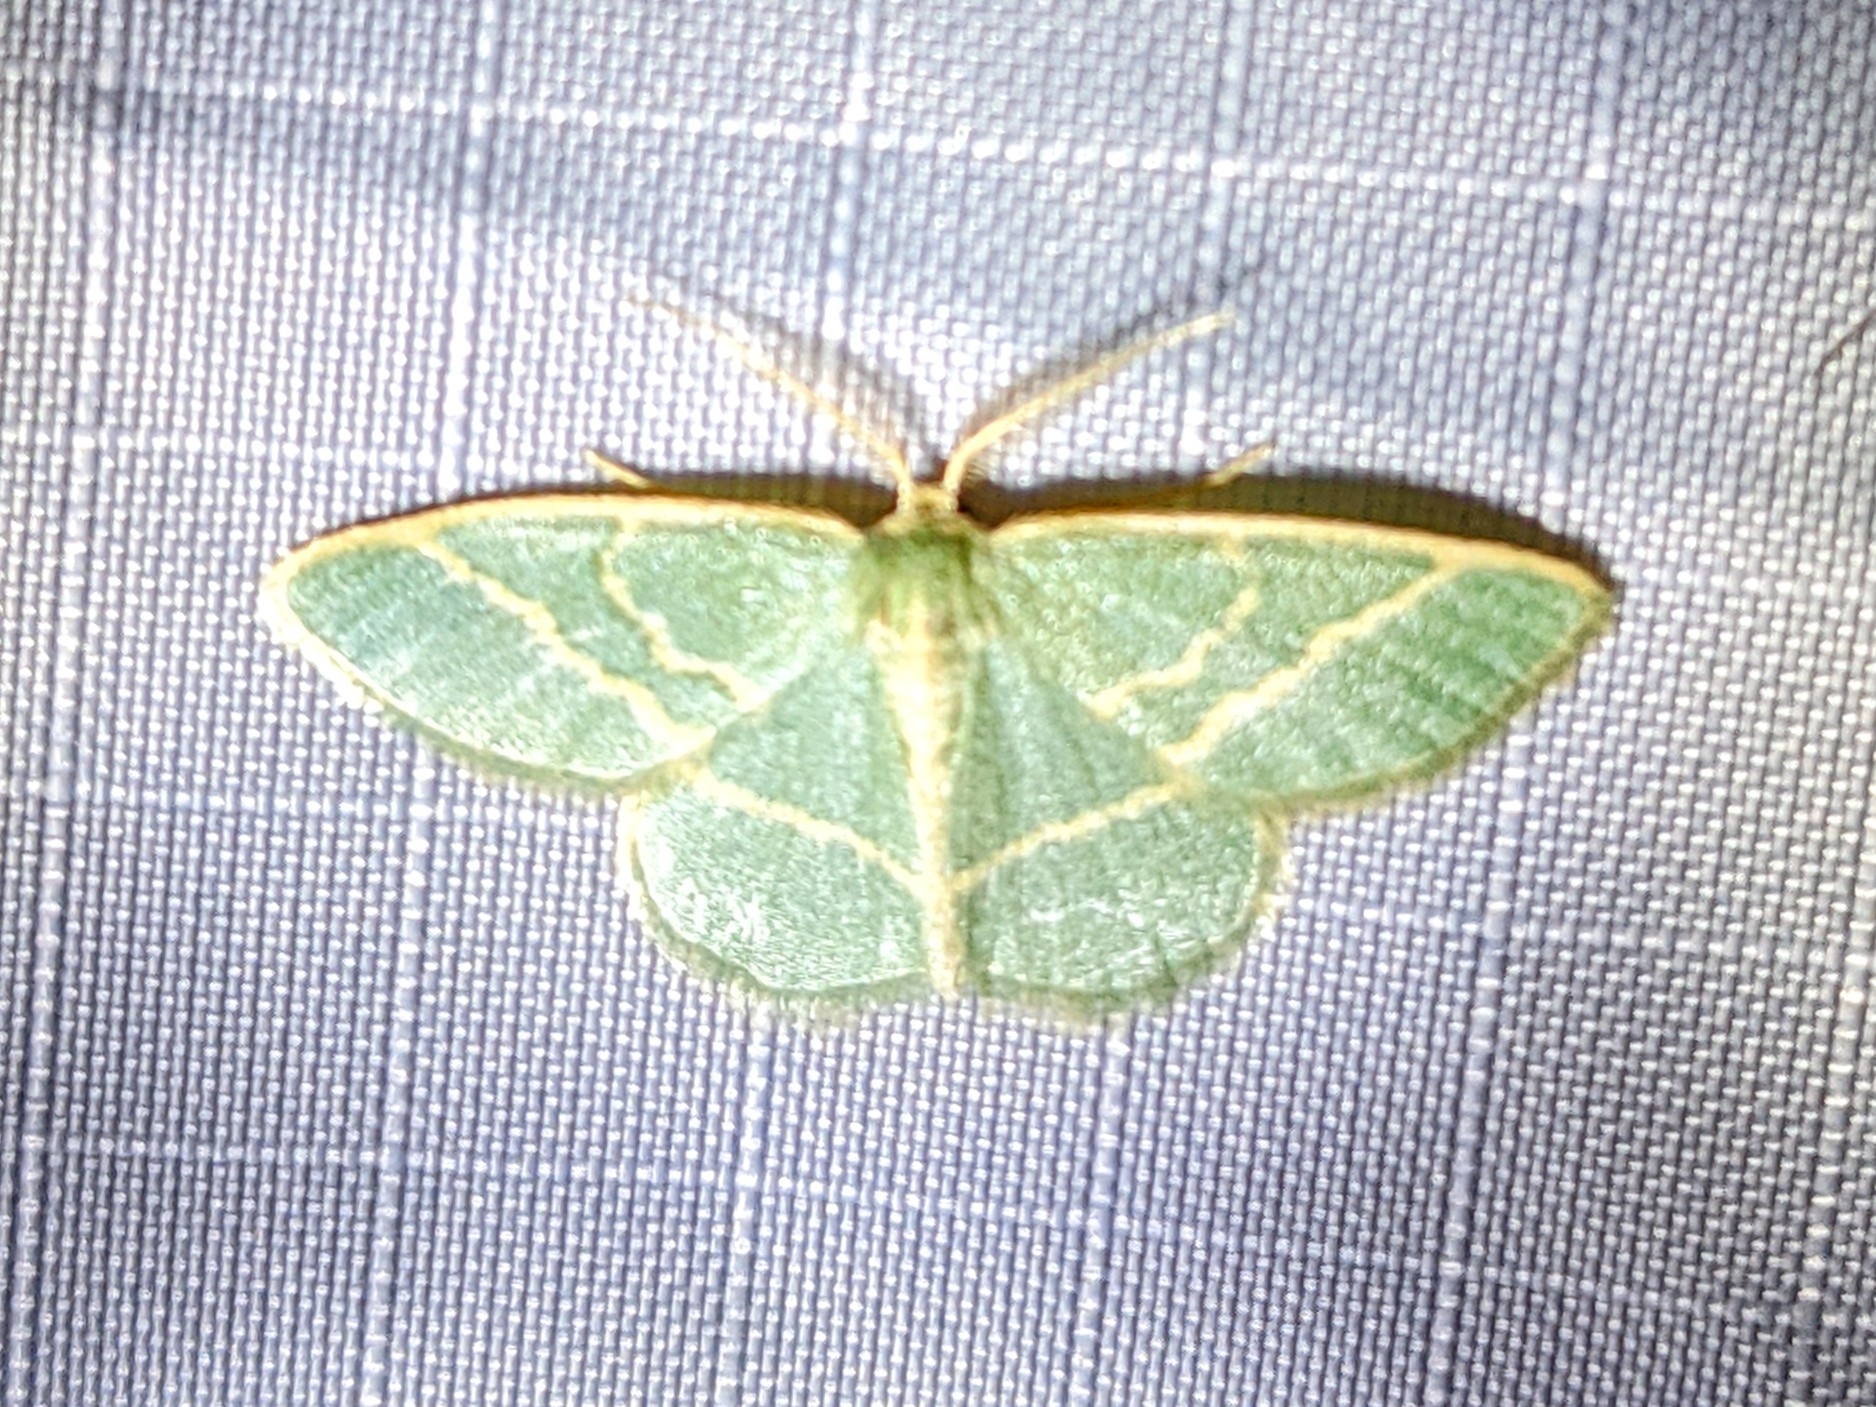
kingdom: Animalia
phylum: Arthropoda
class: Insecta
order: Lepidoptera
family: Geometridae
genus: Chlorochlamys
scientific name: Chlorochlamys chloroleucaria
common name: Blackberry looper
